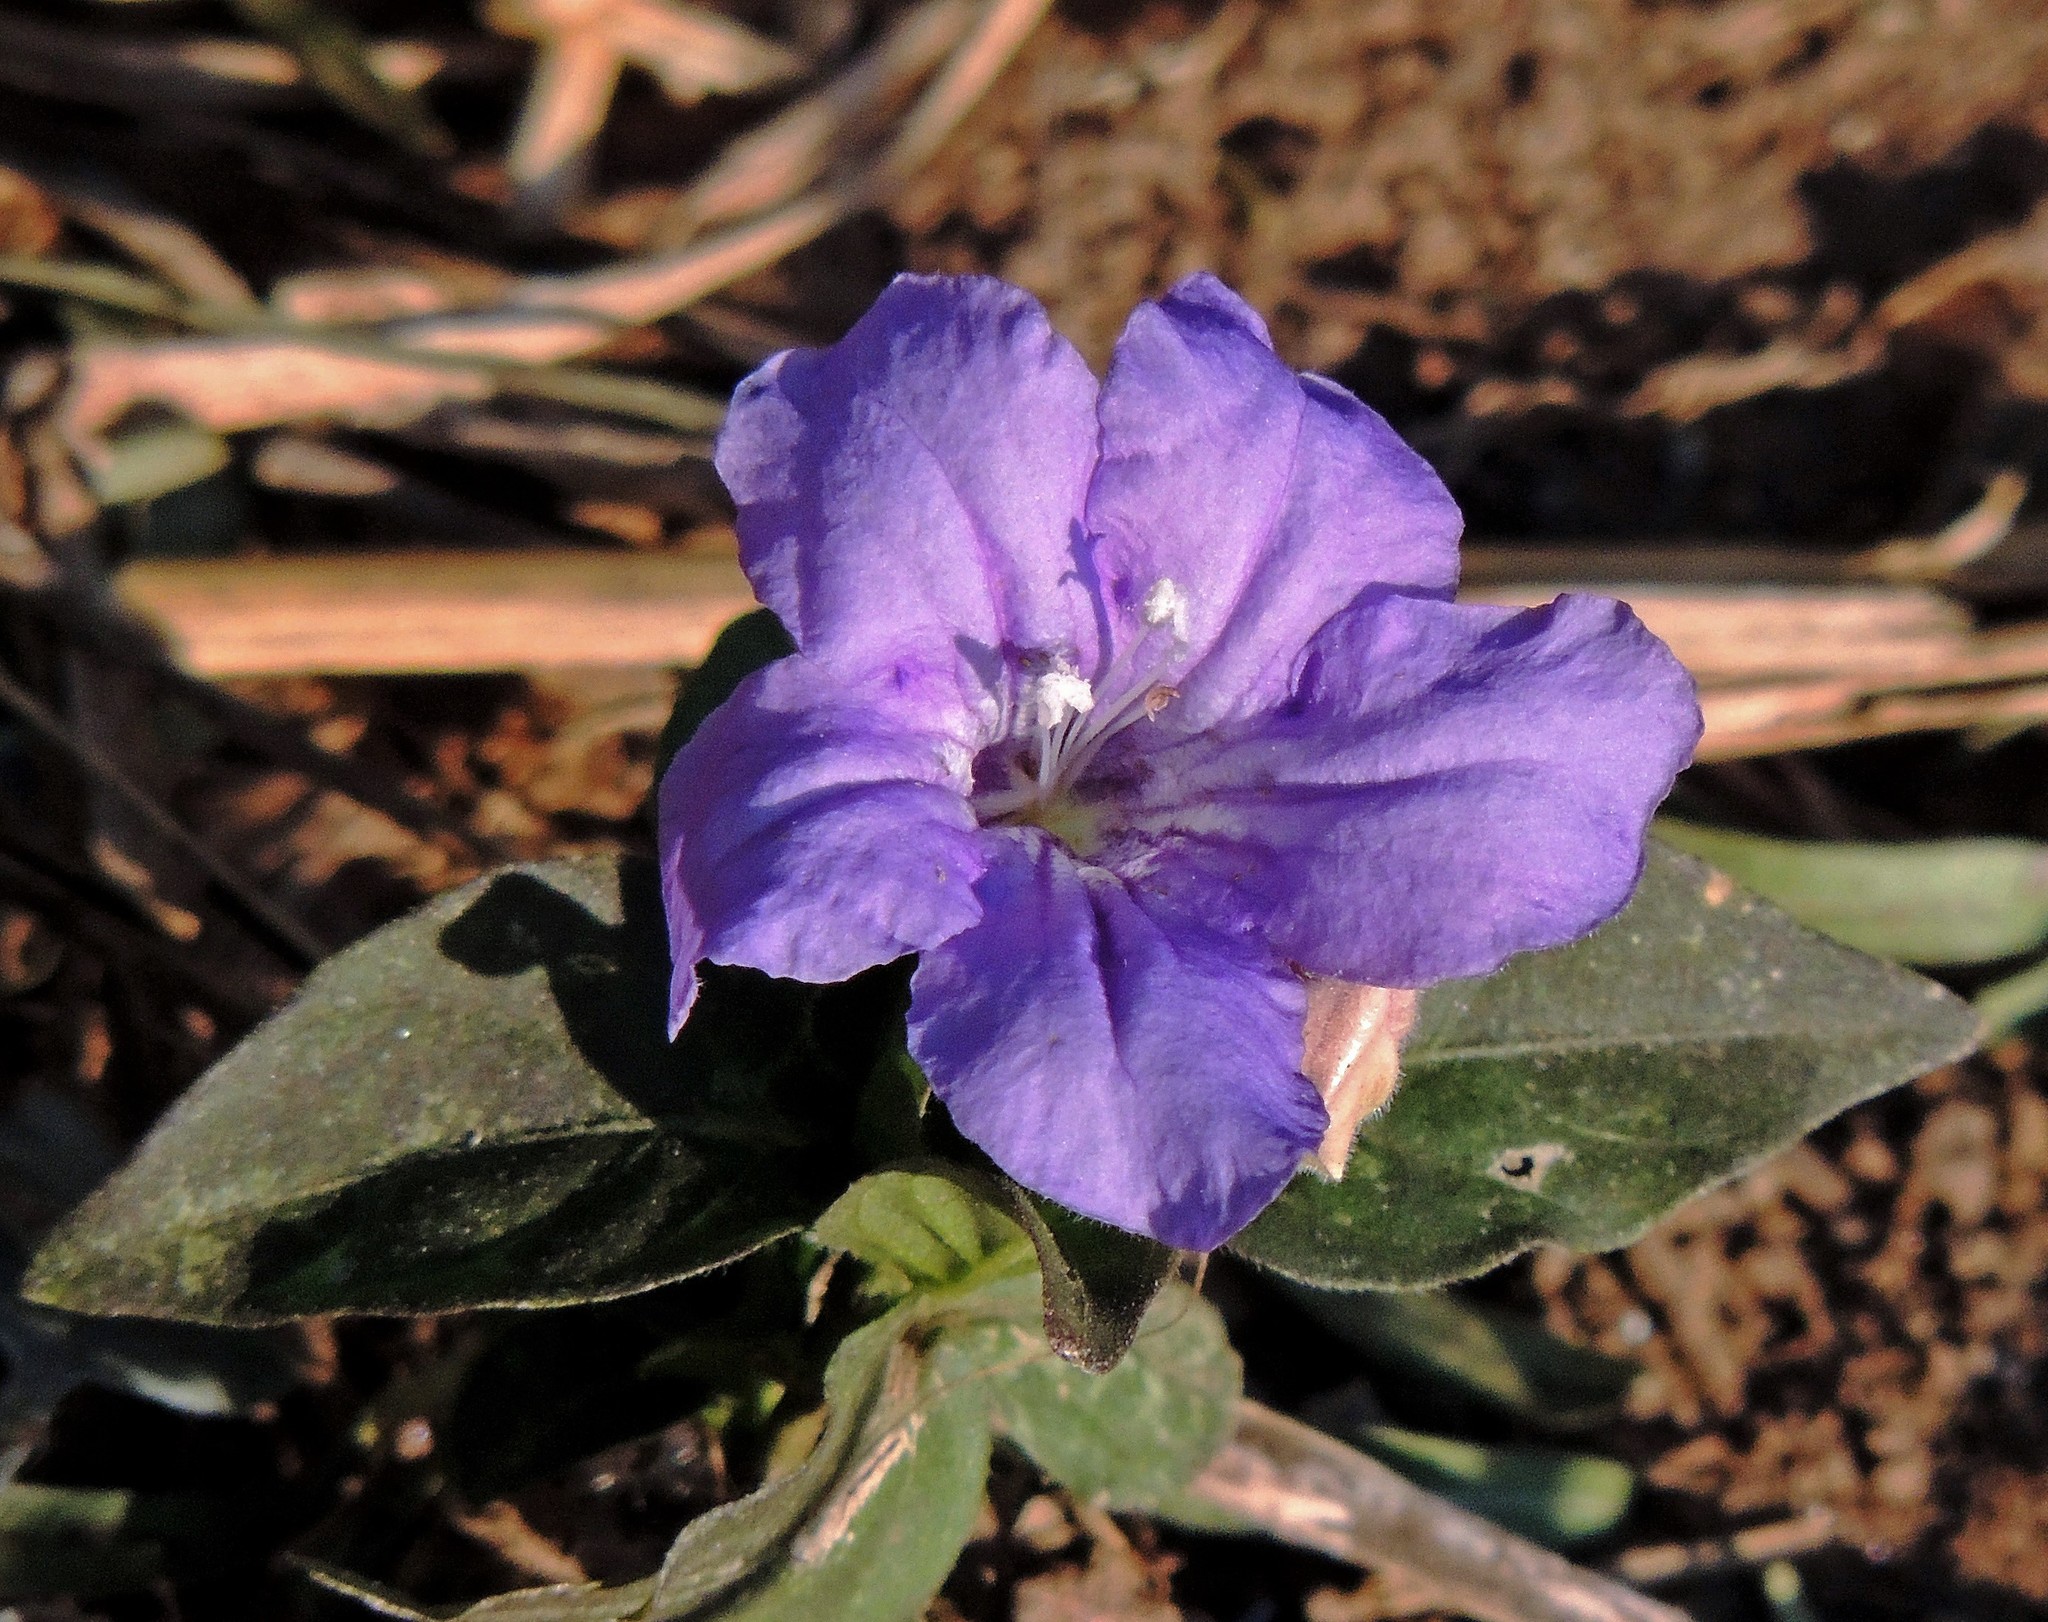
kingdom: Plantae
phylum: Tracheophyta
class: Magnoliopsida
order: Lamiales
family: Acanthaceae
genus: Ruellia
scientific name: Ruellia erythropus
